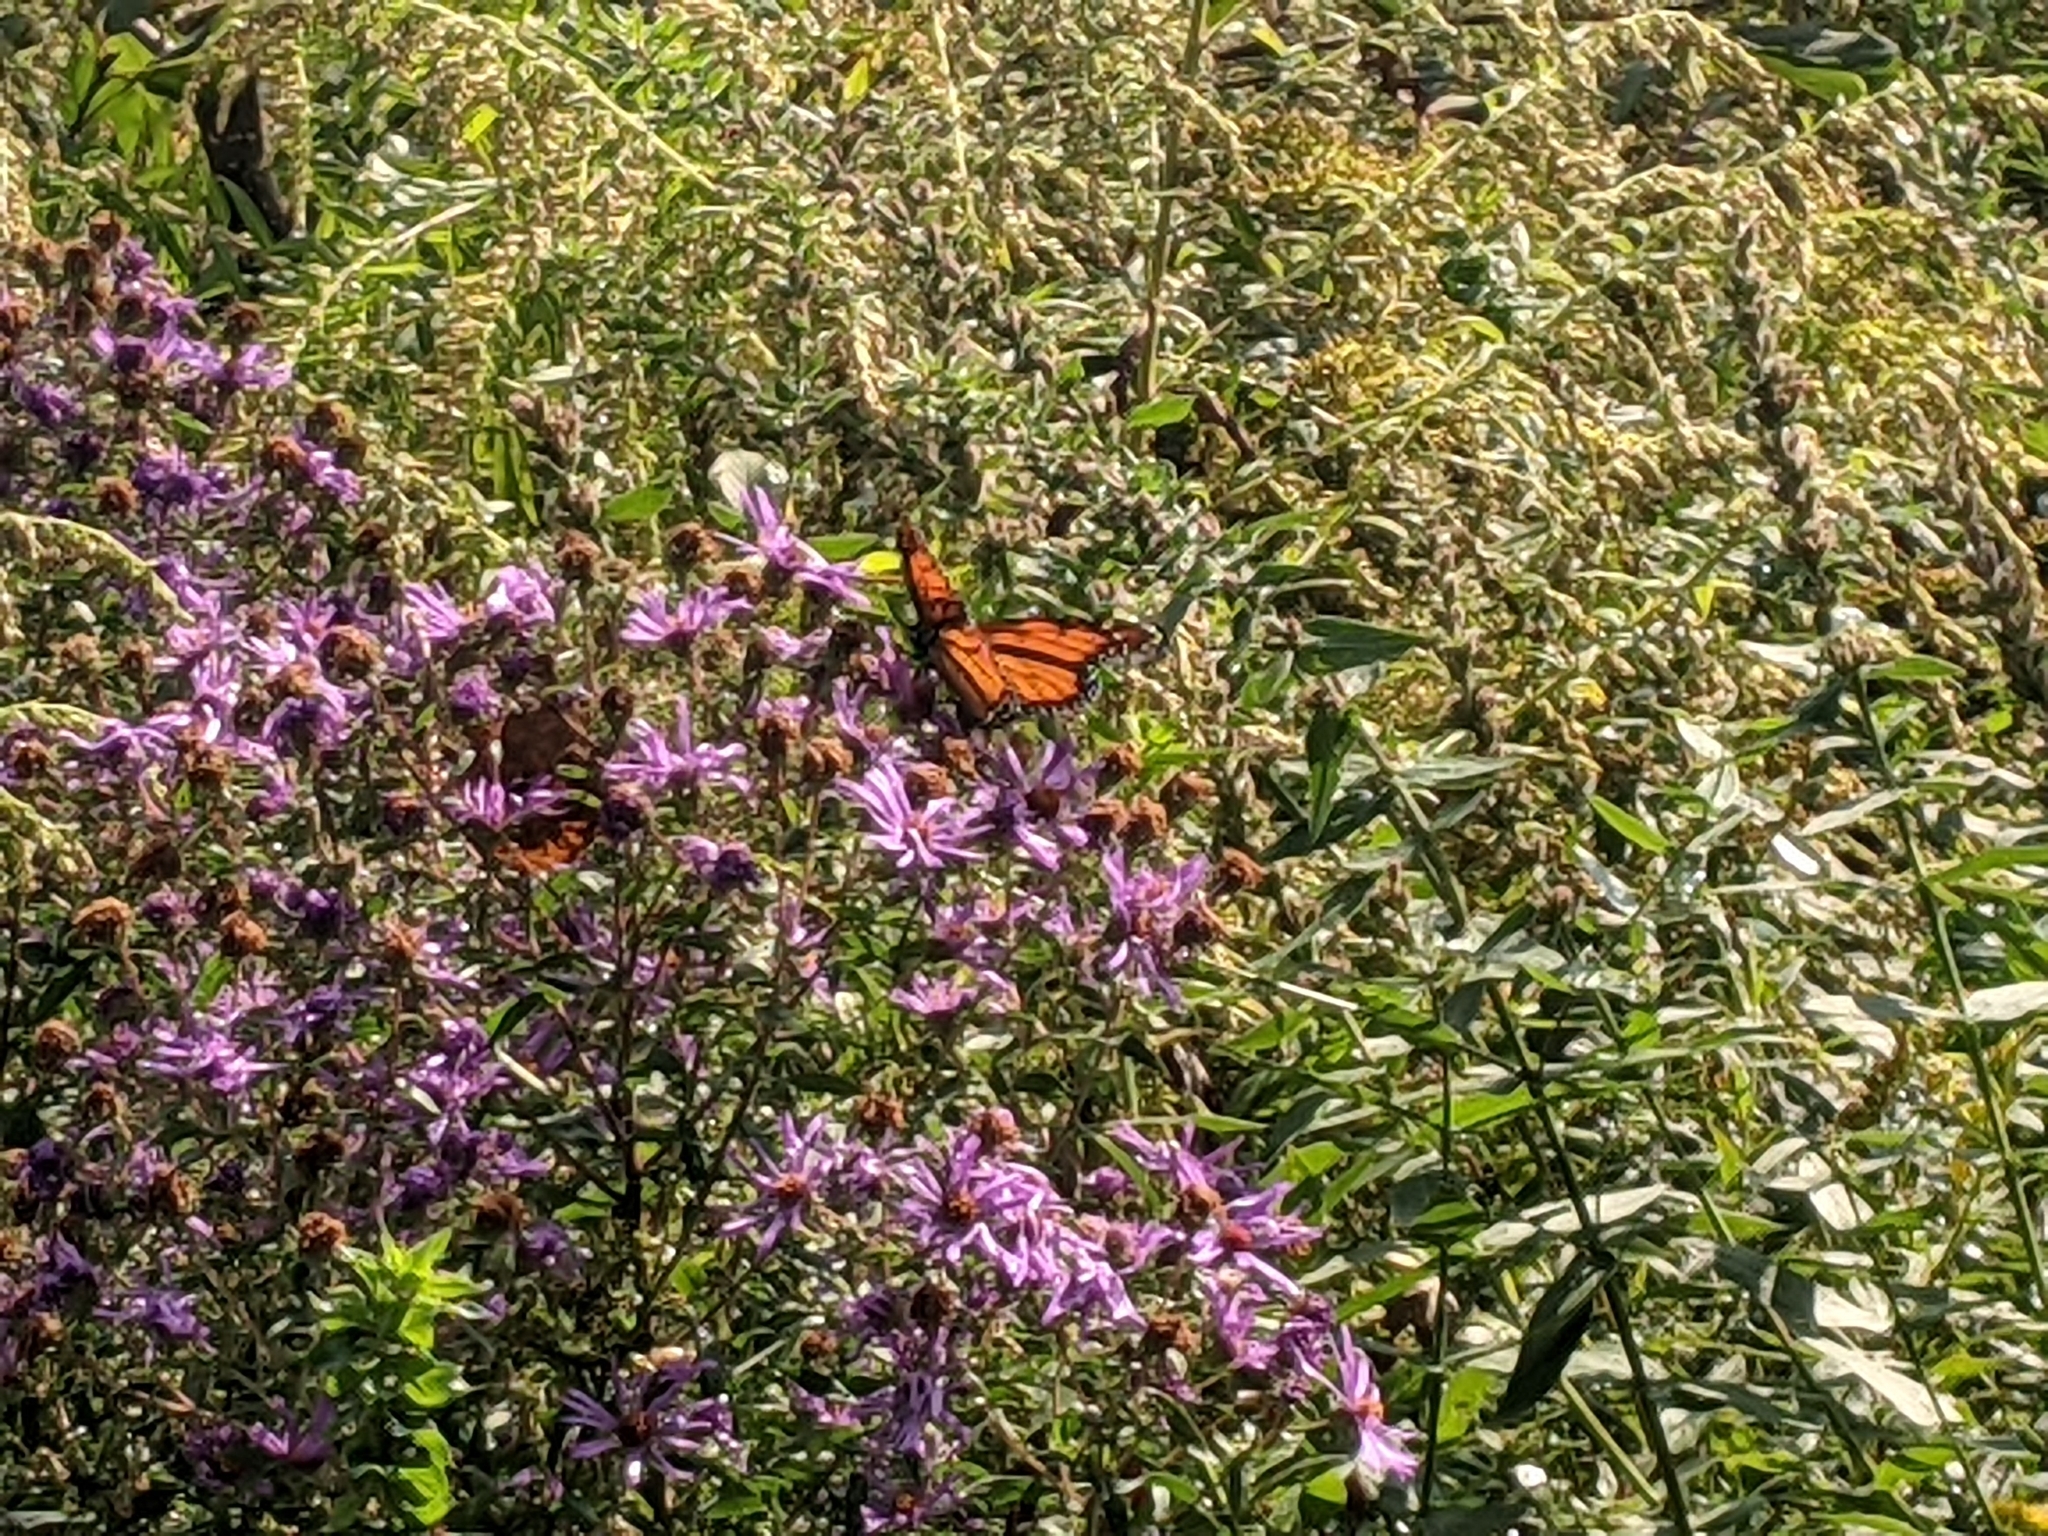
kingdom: Animalia
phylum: Arthropoda
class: Insecta
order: Lepidoptera
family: Nymphalidae
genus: Danaus
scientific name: Danaus plexippus
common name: Monarch
